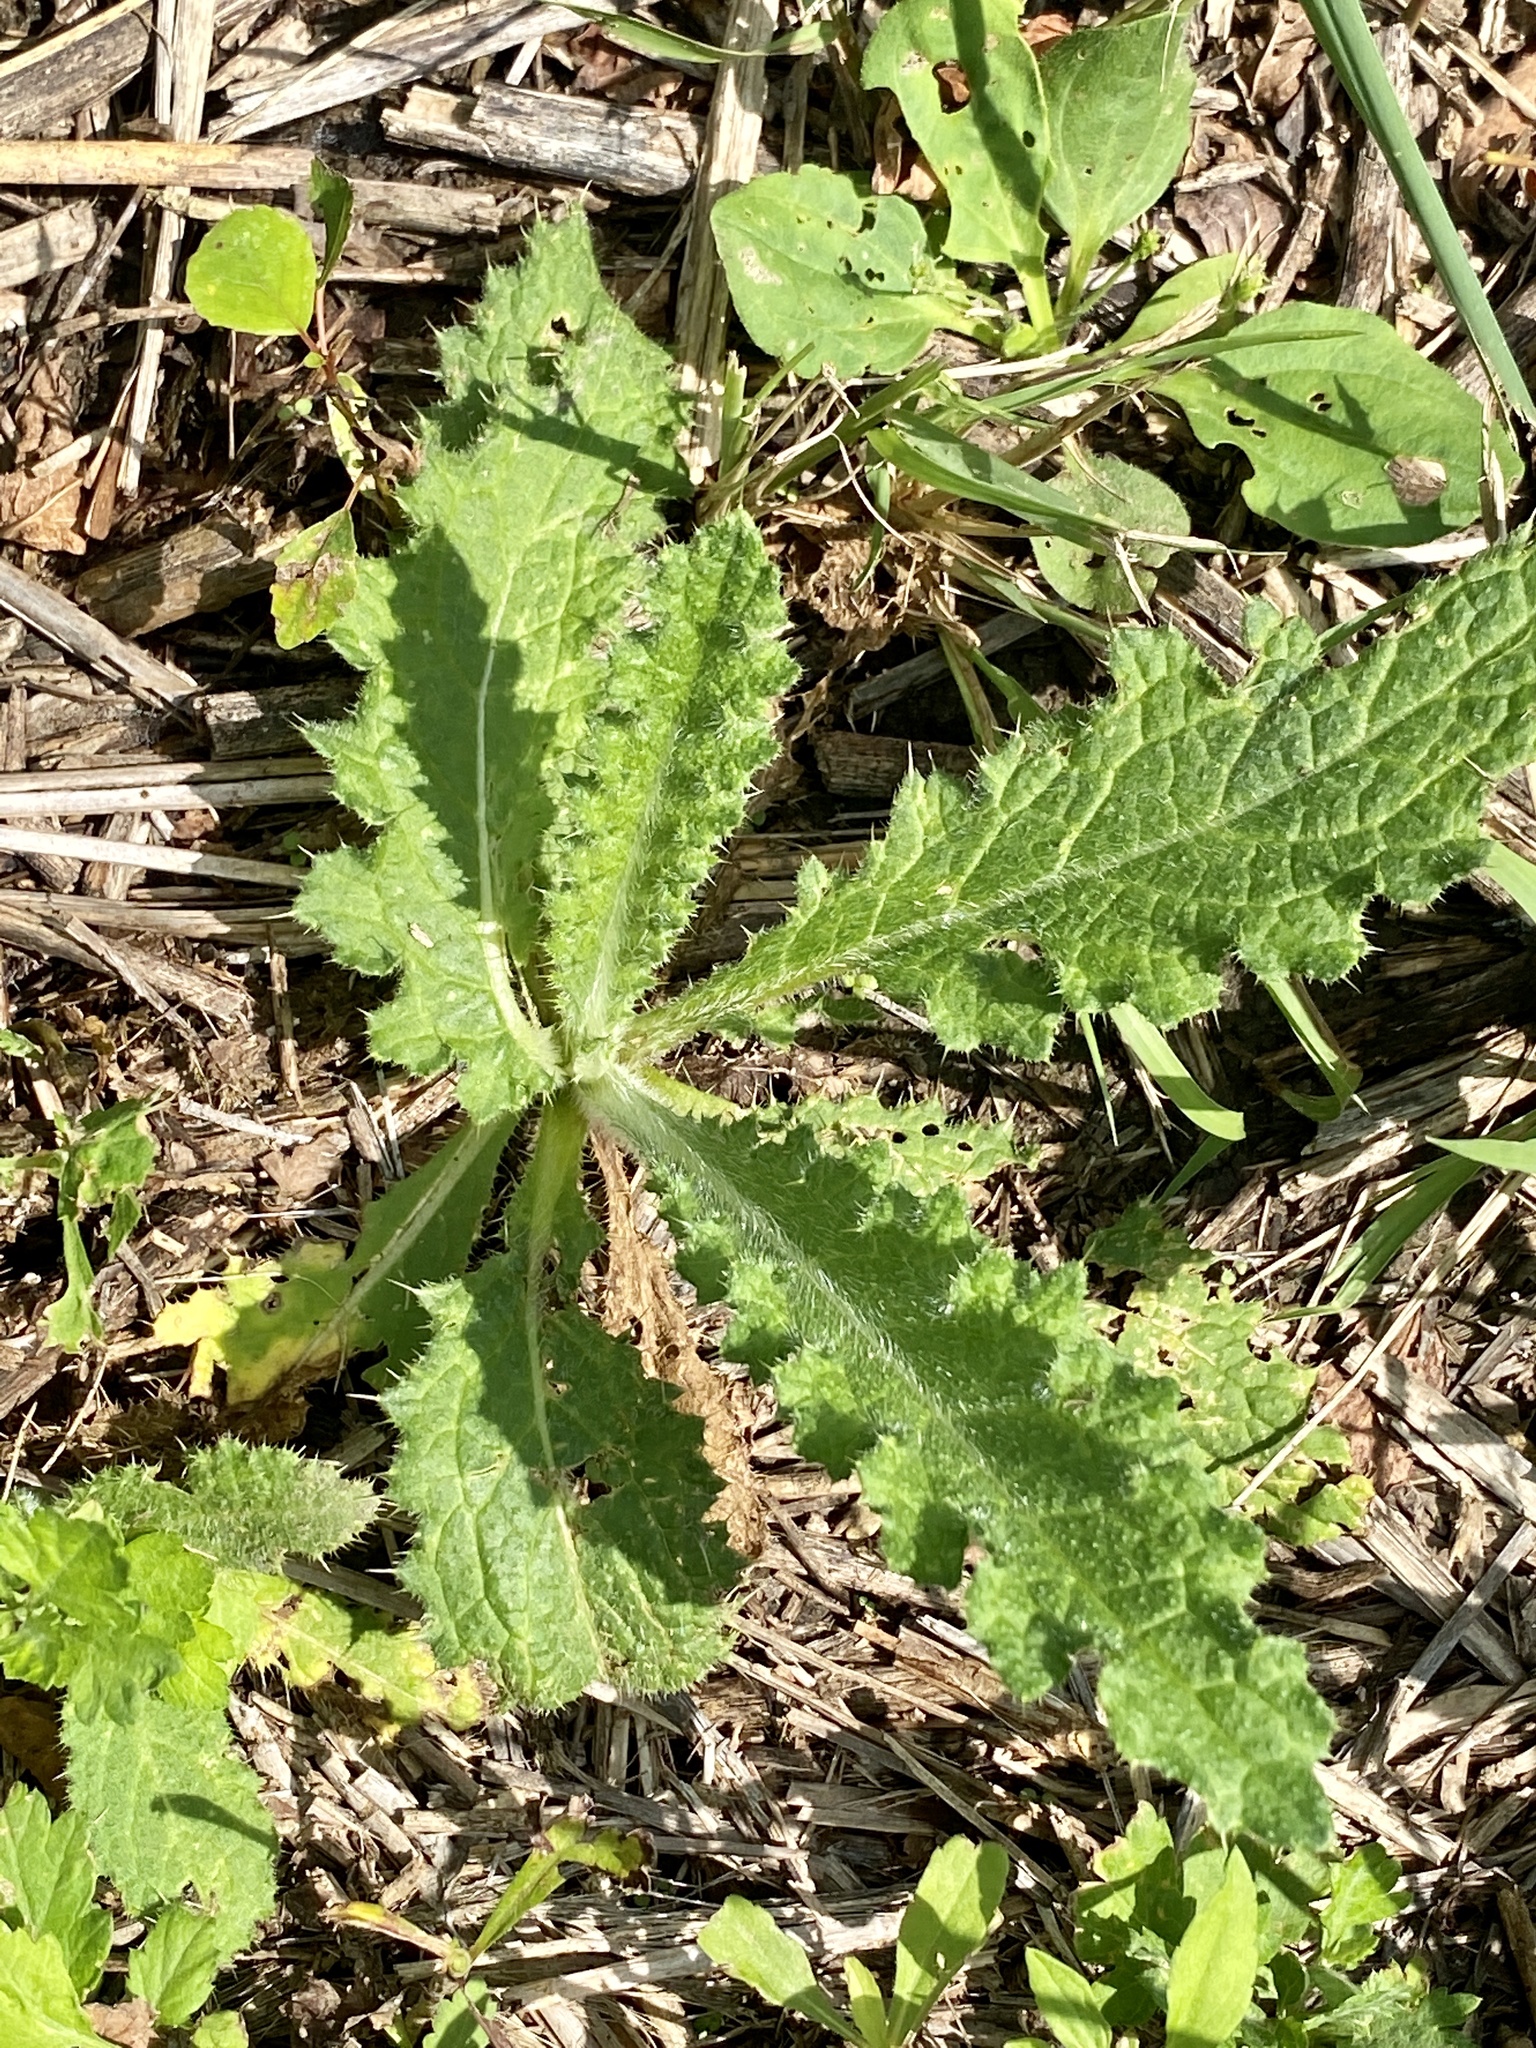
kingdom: Plantae
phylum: Tracheophyta
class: Magnoliopsida
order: Asterales
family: Asteraceae
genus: Cirsium
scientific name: Cirsium vulgare
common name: Bull thistle
